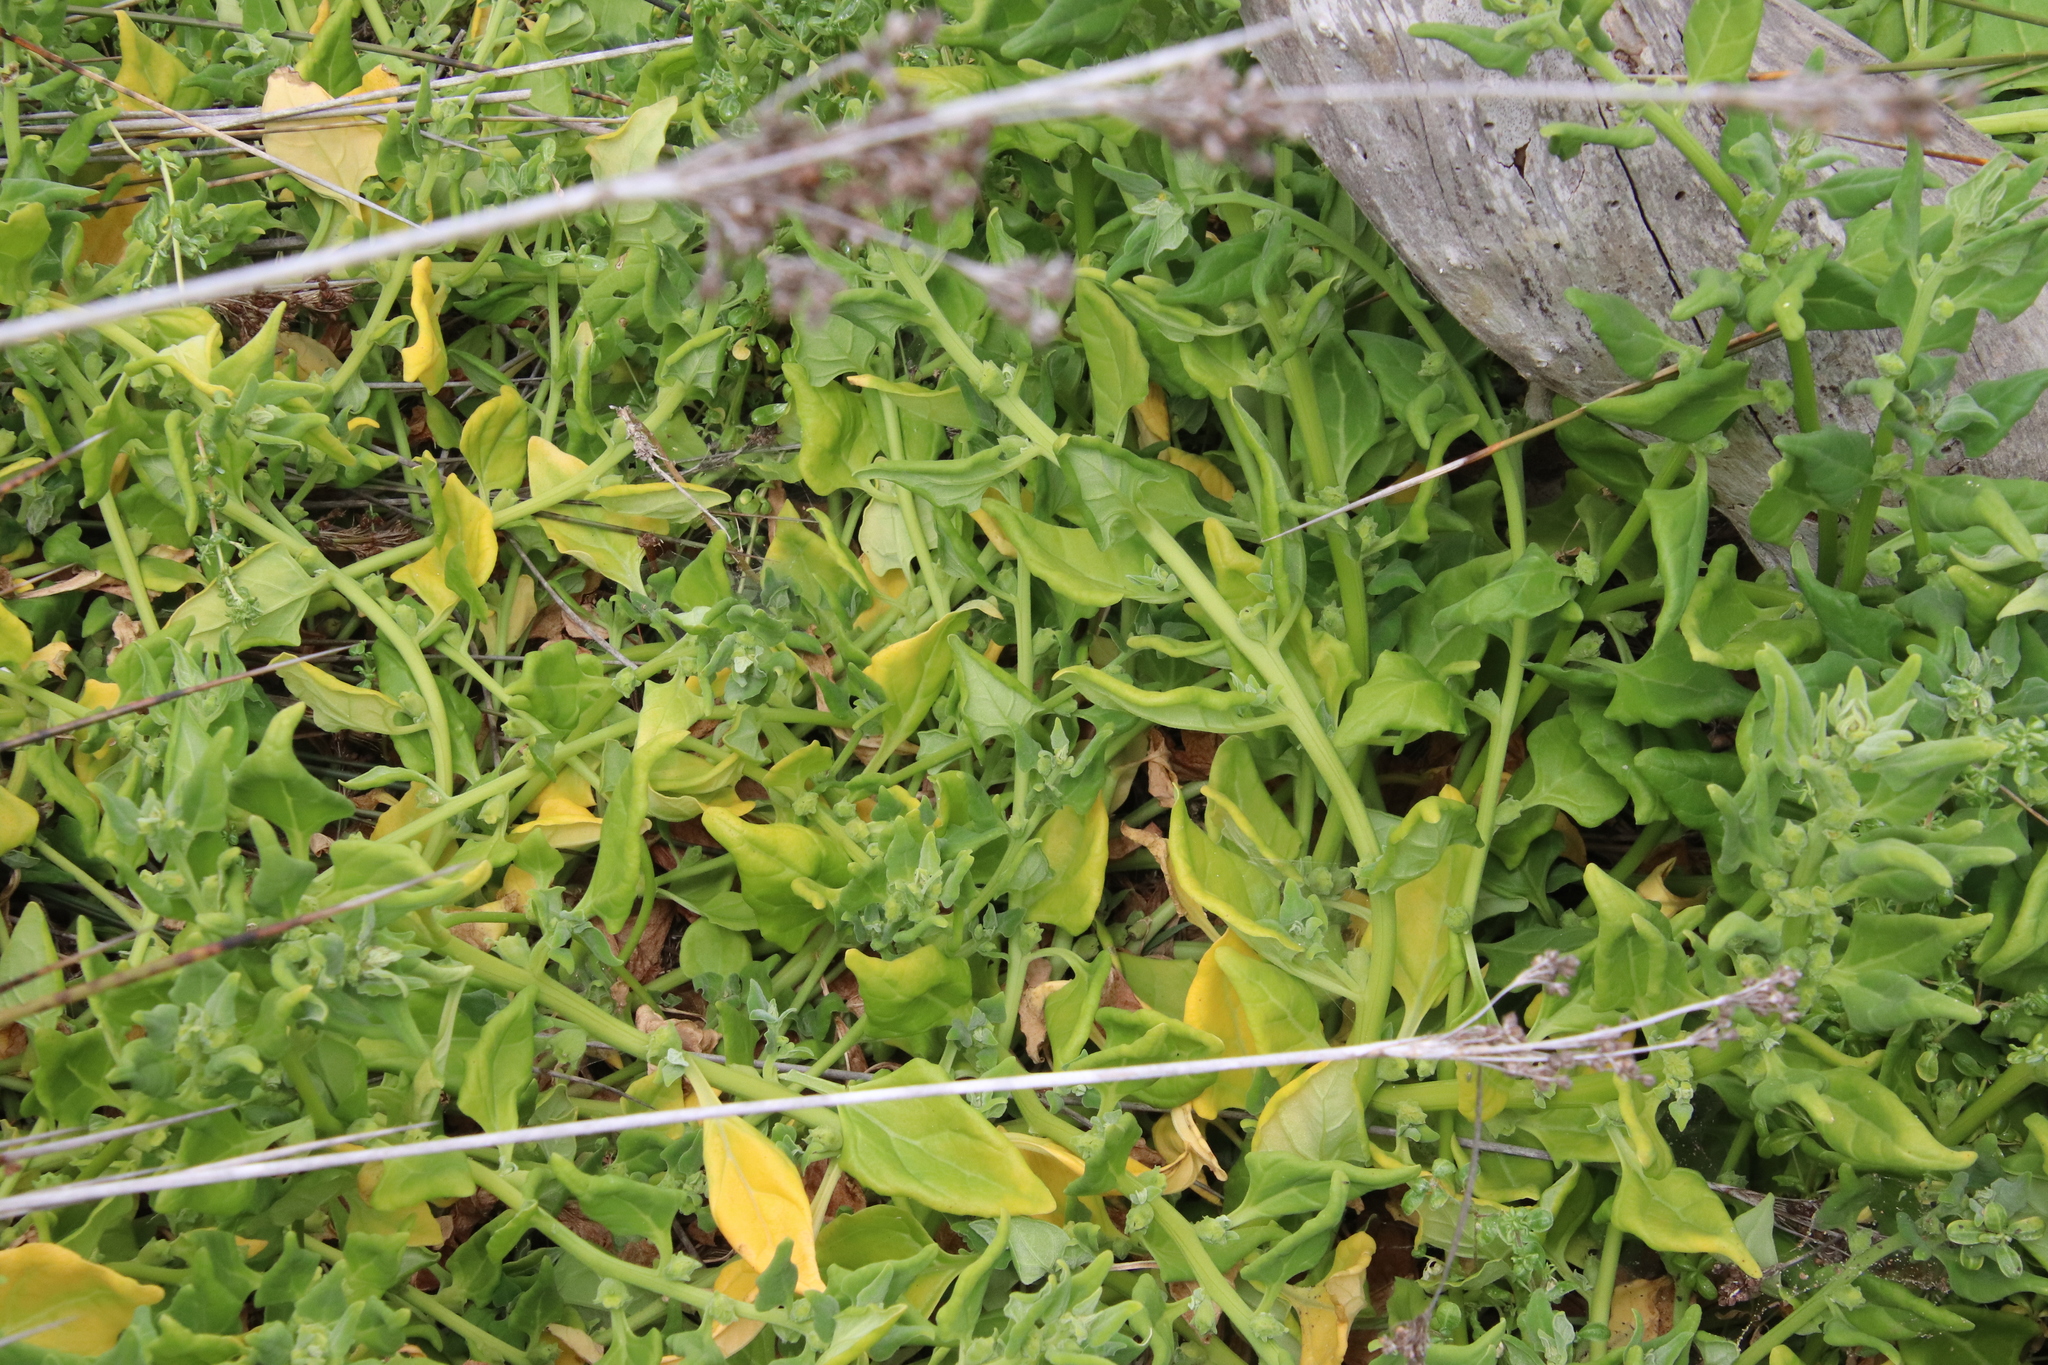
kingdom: Plantae
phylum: Tracheophyta
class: Magnoliopsida
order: Caryophyllales
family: Aizoaceae
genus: Tetragonia
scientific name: Tetragonia tetragonoides
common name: New zealand-spinach
